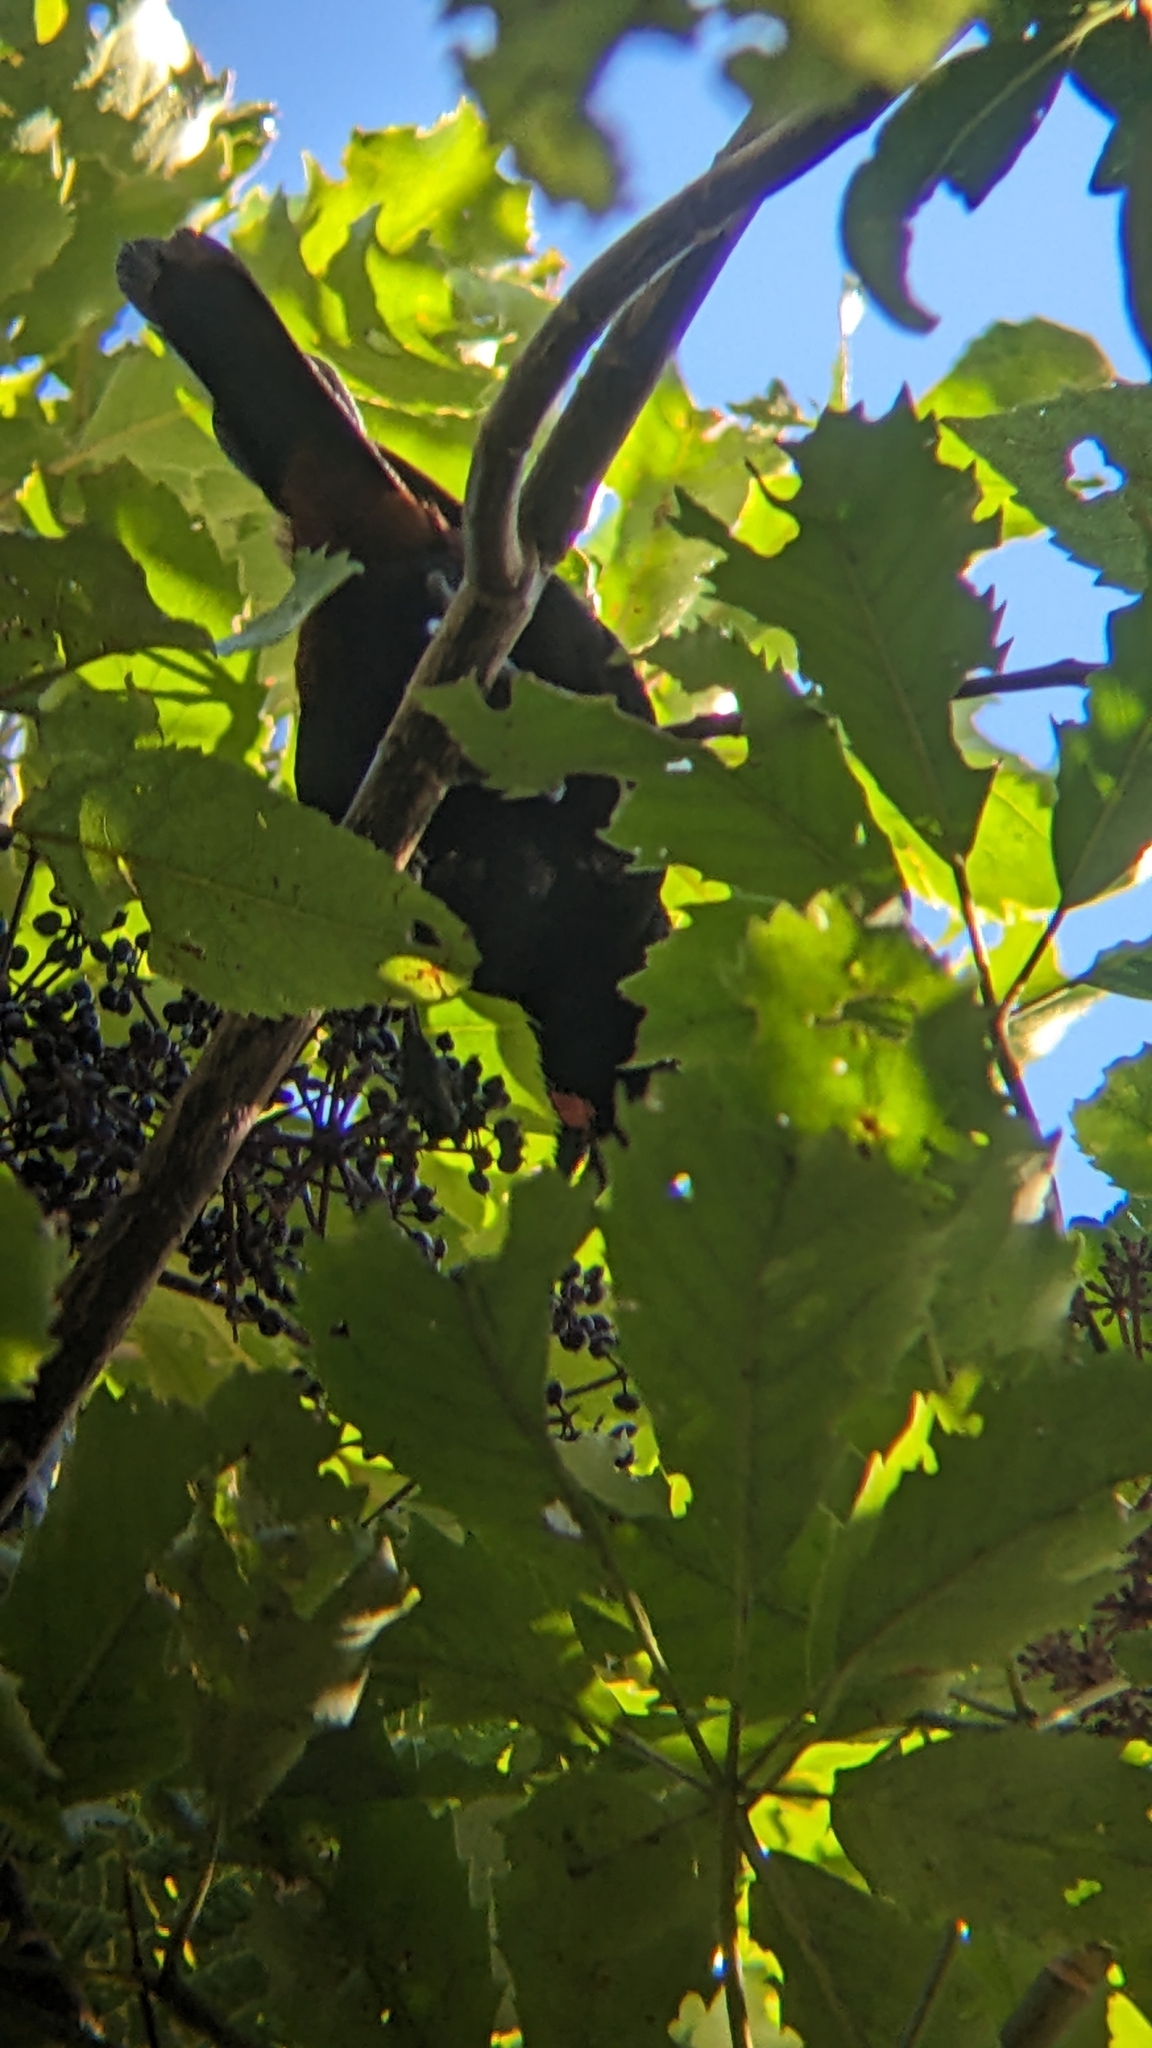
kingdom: Animalia
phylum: Chordata
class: Aves
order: Passeriformes
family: Callaeatidae
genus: Philesturnus
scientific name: Philesturnus carunculatus
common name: South island saddleback
